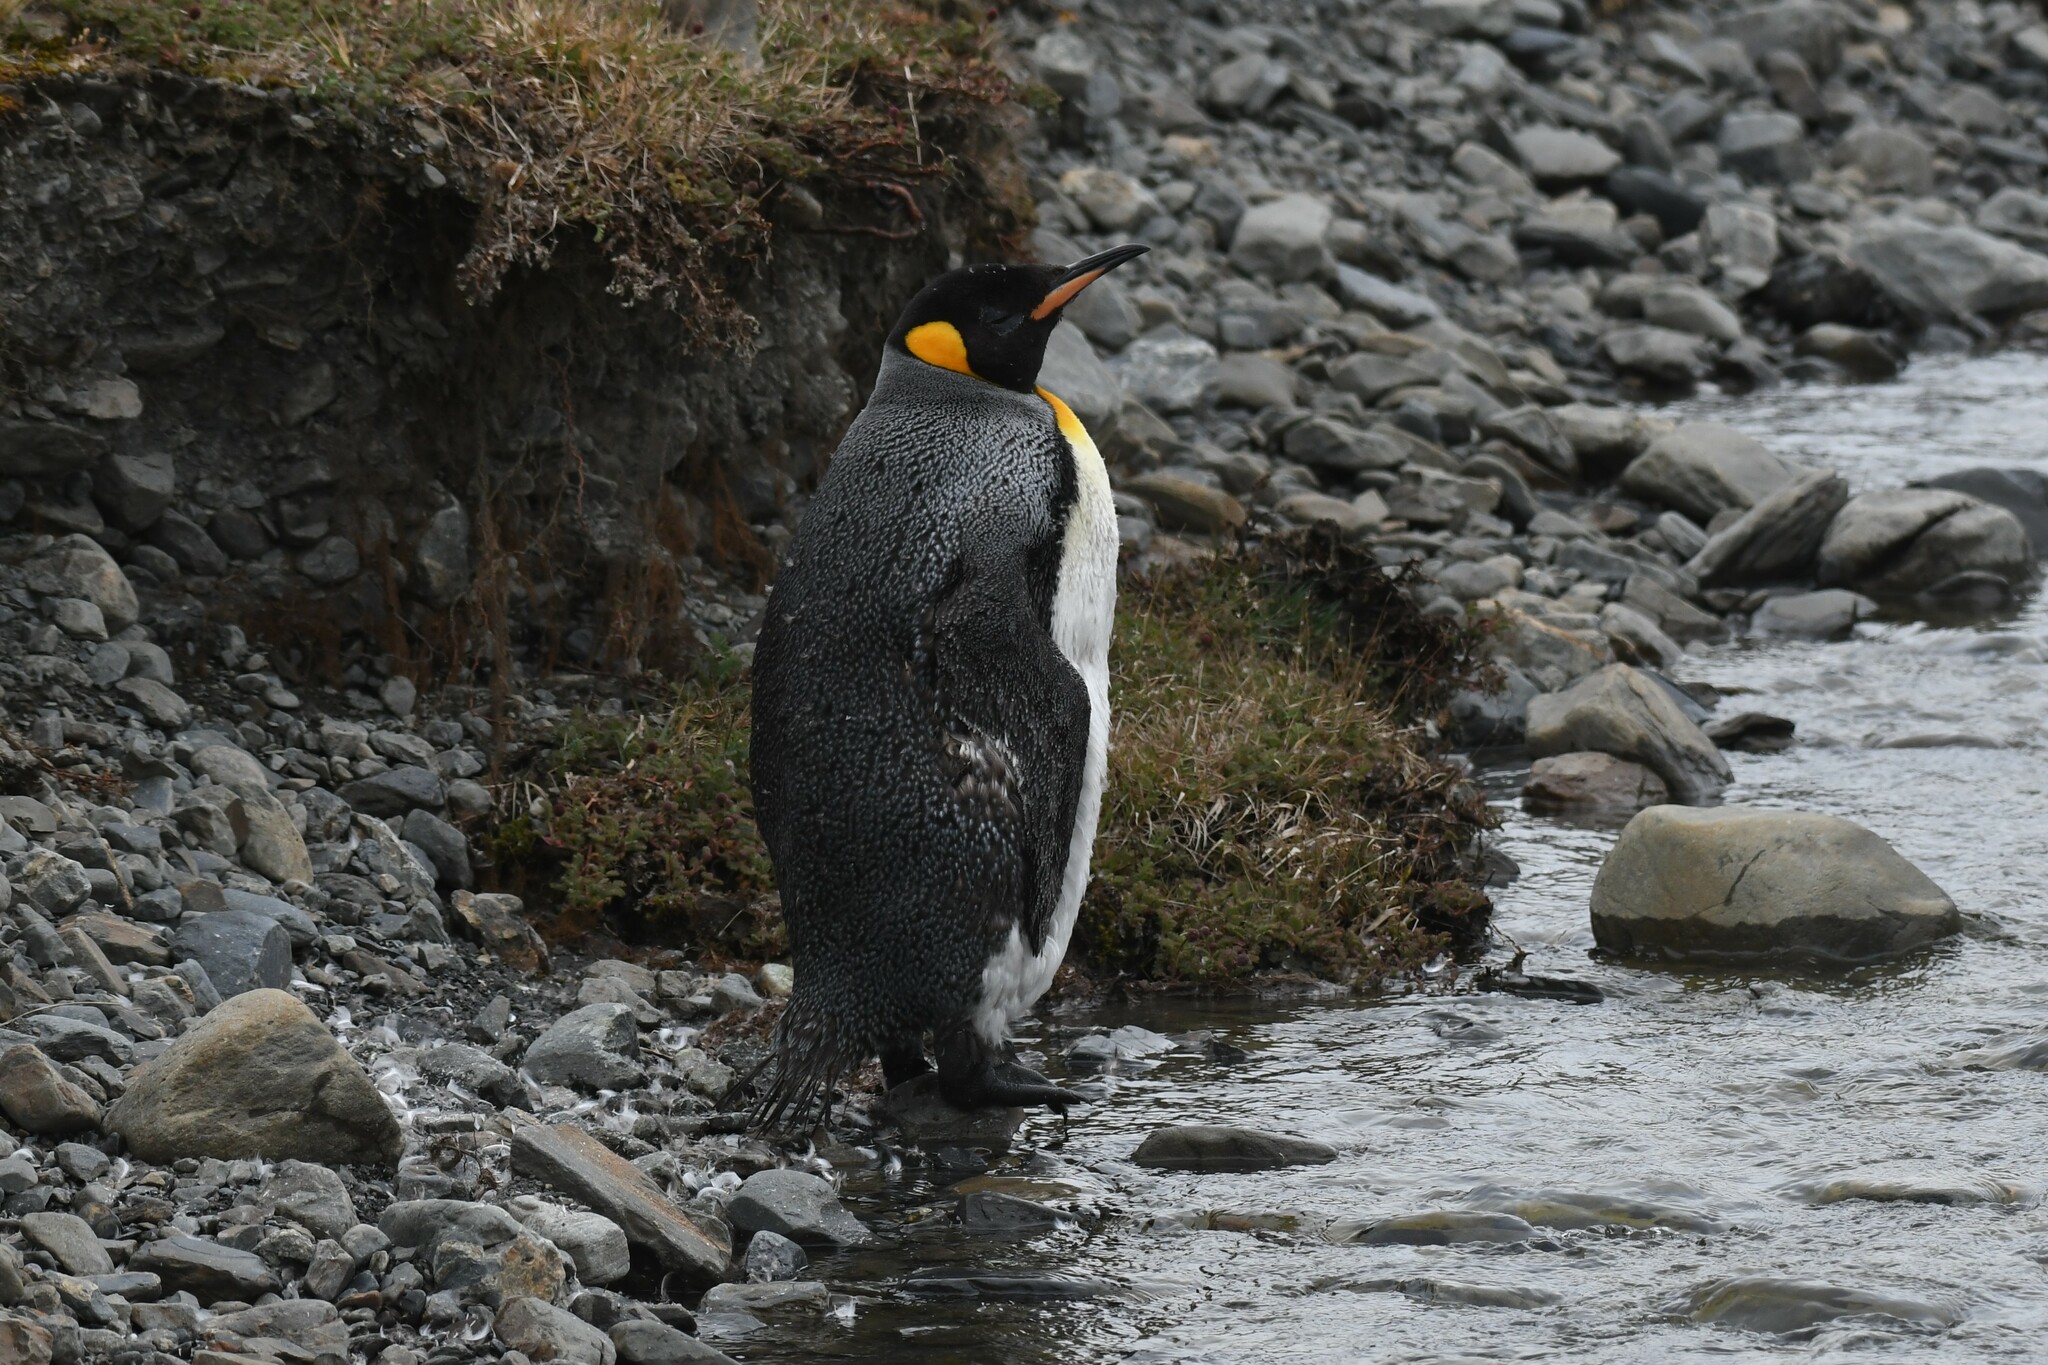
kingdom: Animalia
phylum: Chordata
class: Aves
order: Sphenisciformes
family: Spheniscidae
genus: Aptenodytes
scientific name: Aptenodytes patagonicus
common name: King penguin
